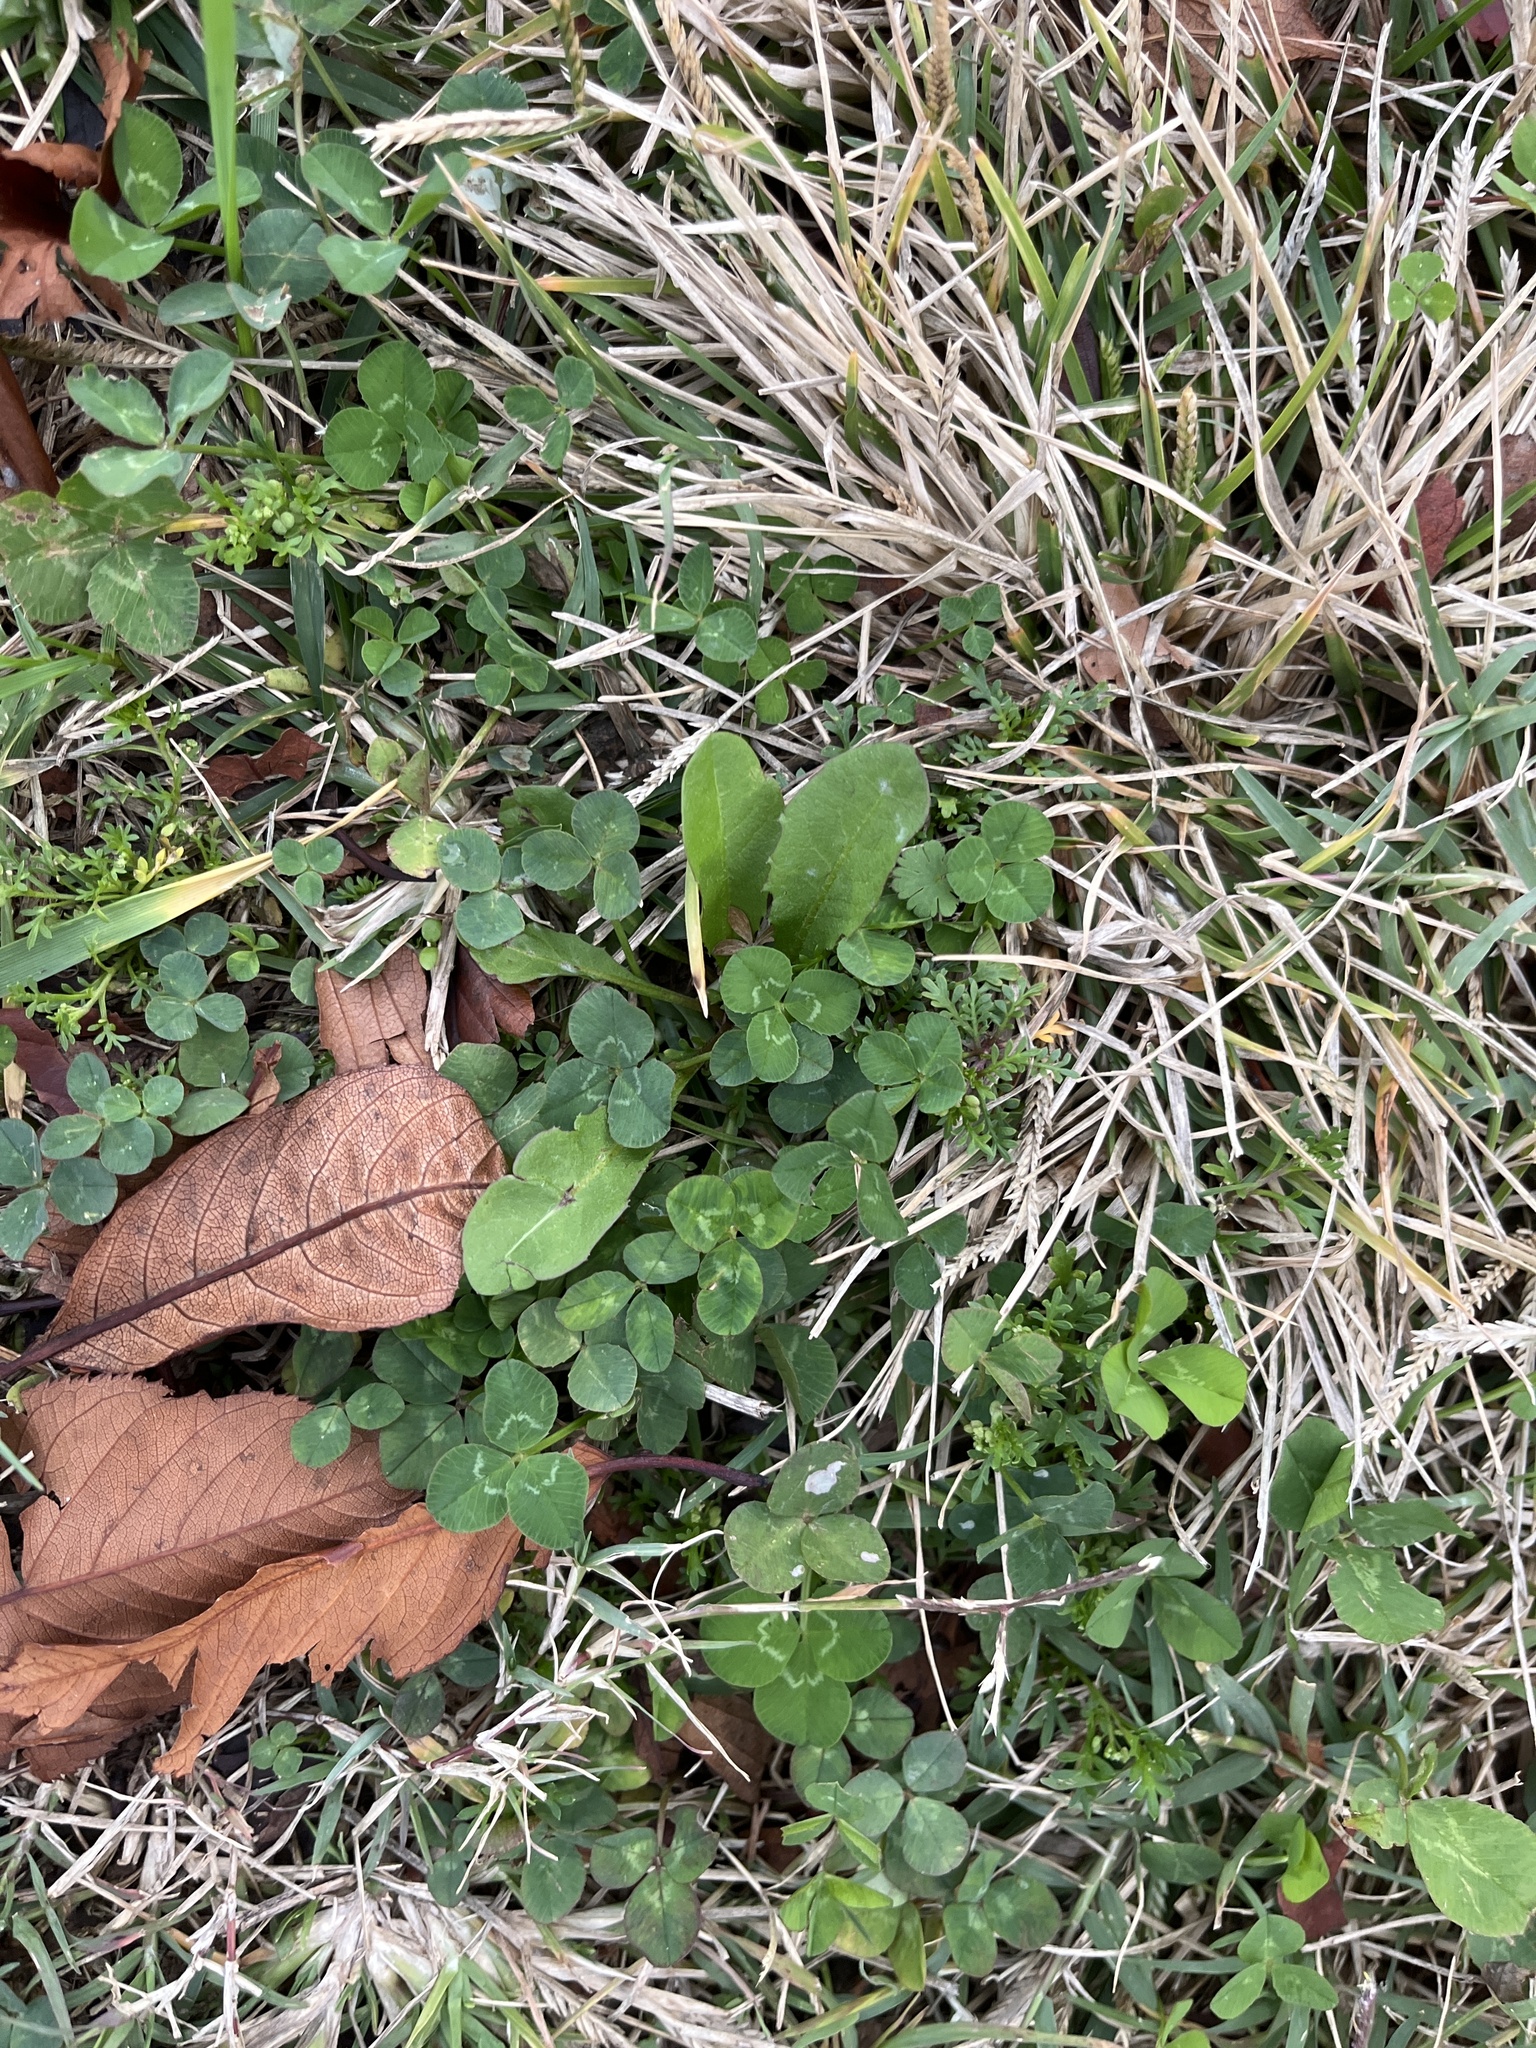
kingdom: Plantae
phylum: Tracheophyta
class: Magnoliopsida
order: Fabales
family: Fabaceae
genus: Trifolium
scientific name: Trifolium repens
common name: White clover
